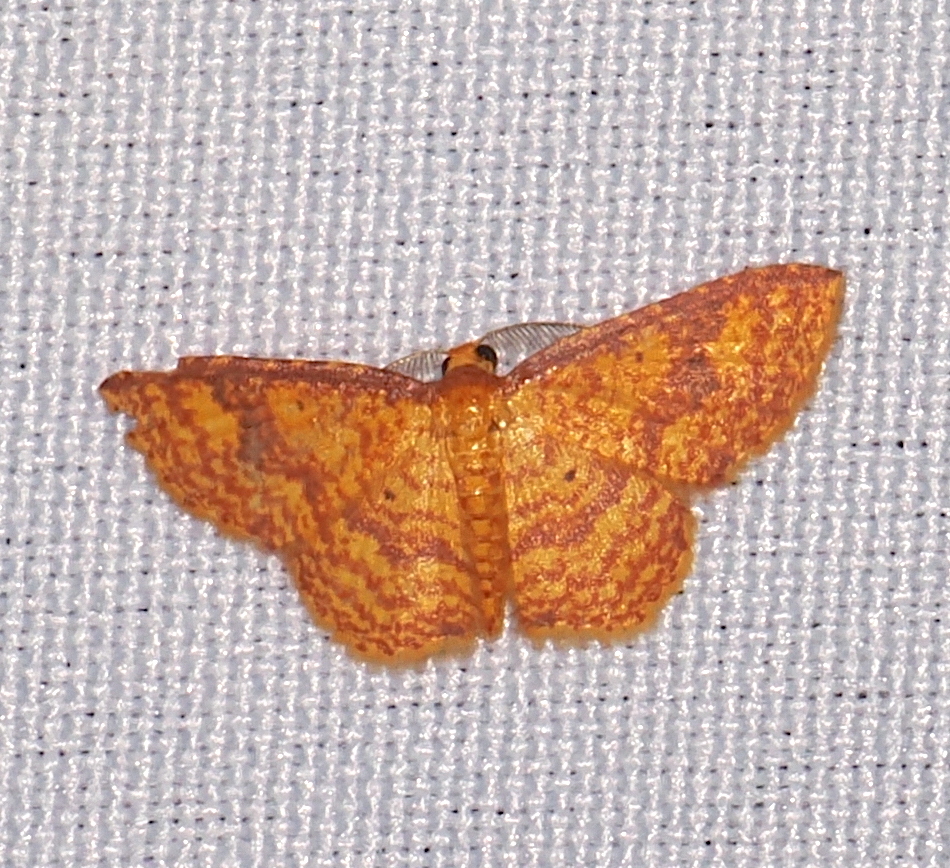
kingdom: Animalia
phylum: Arthropoda
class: Insecta
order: Lepidoptera
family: Geometridae
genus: Eois
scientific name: Eois dryope
